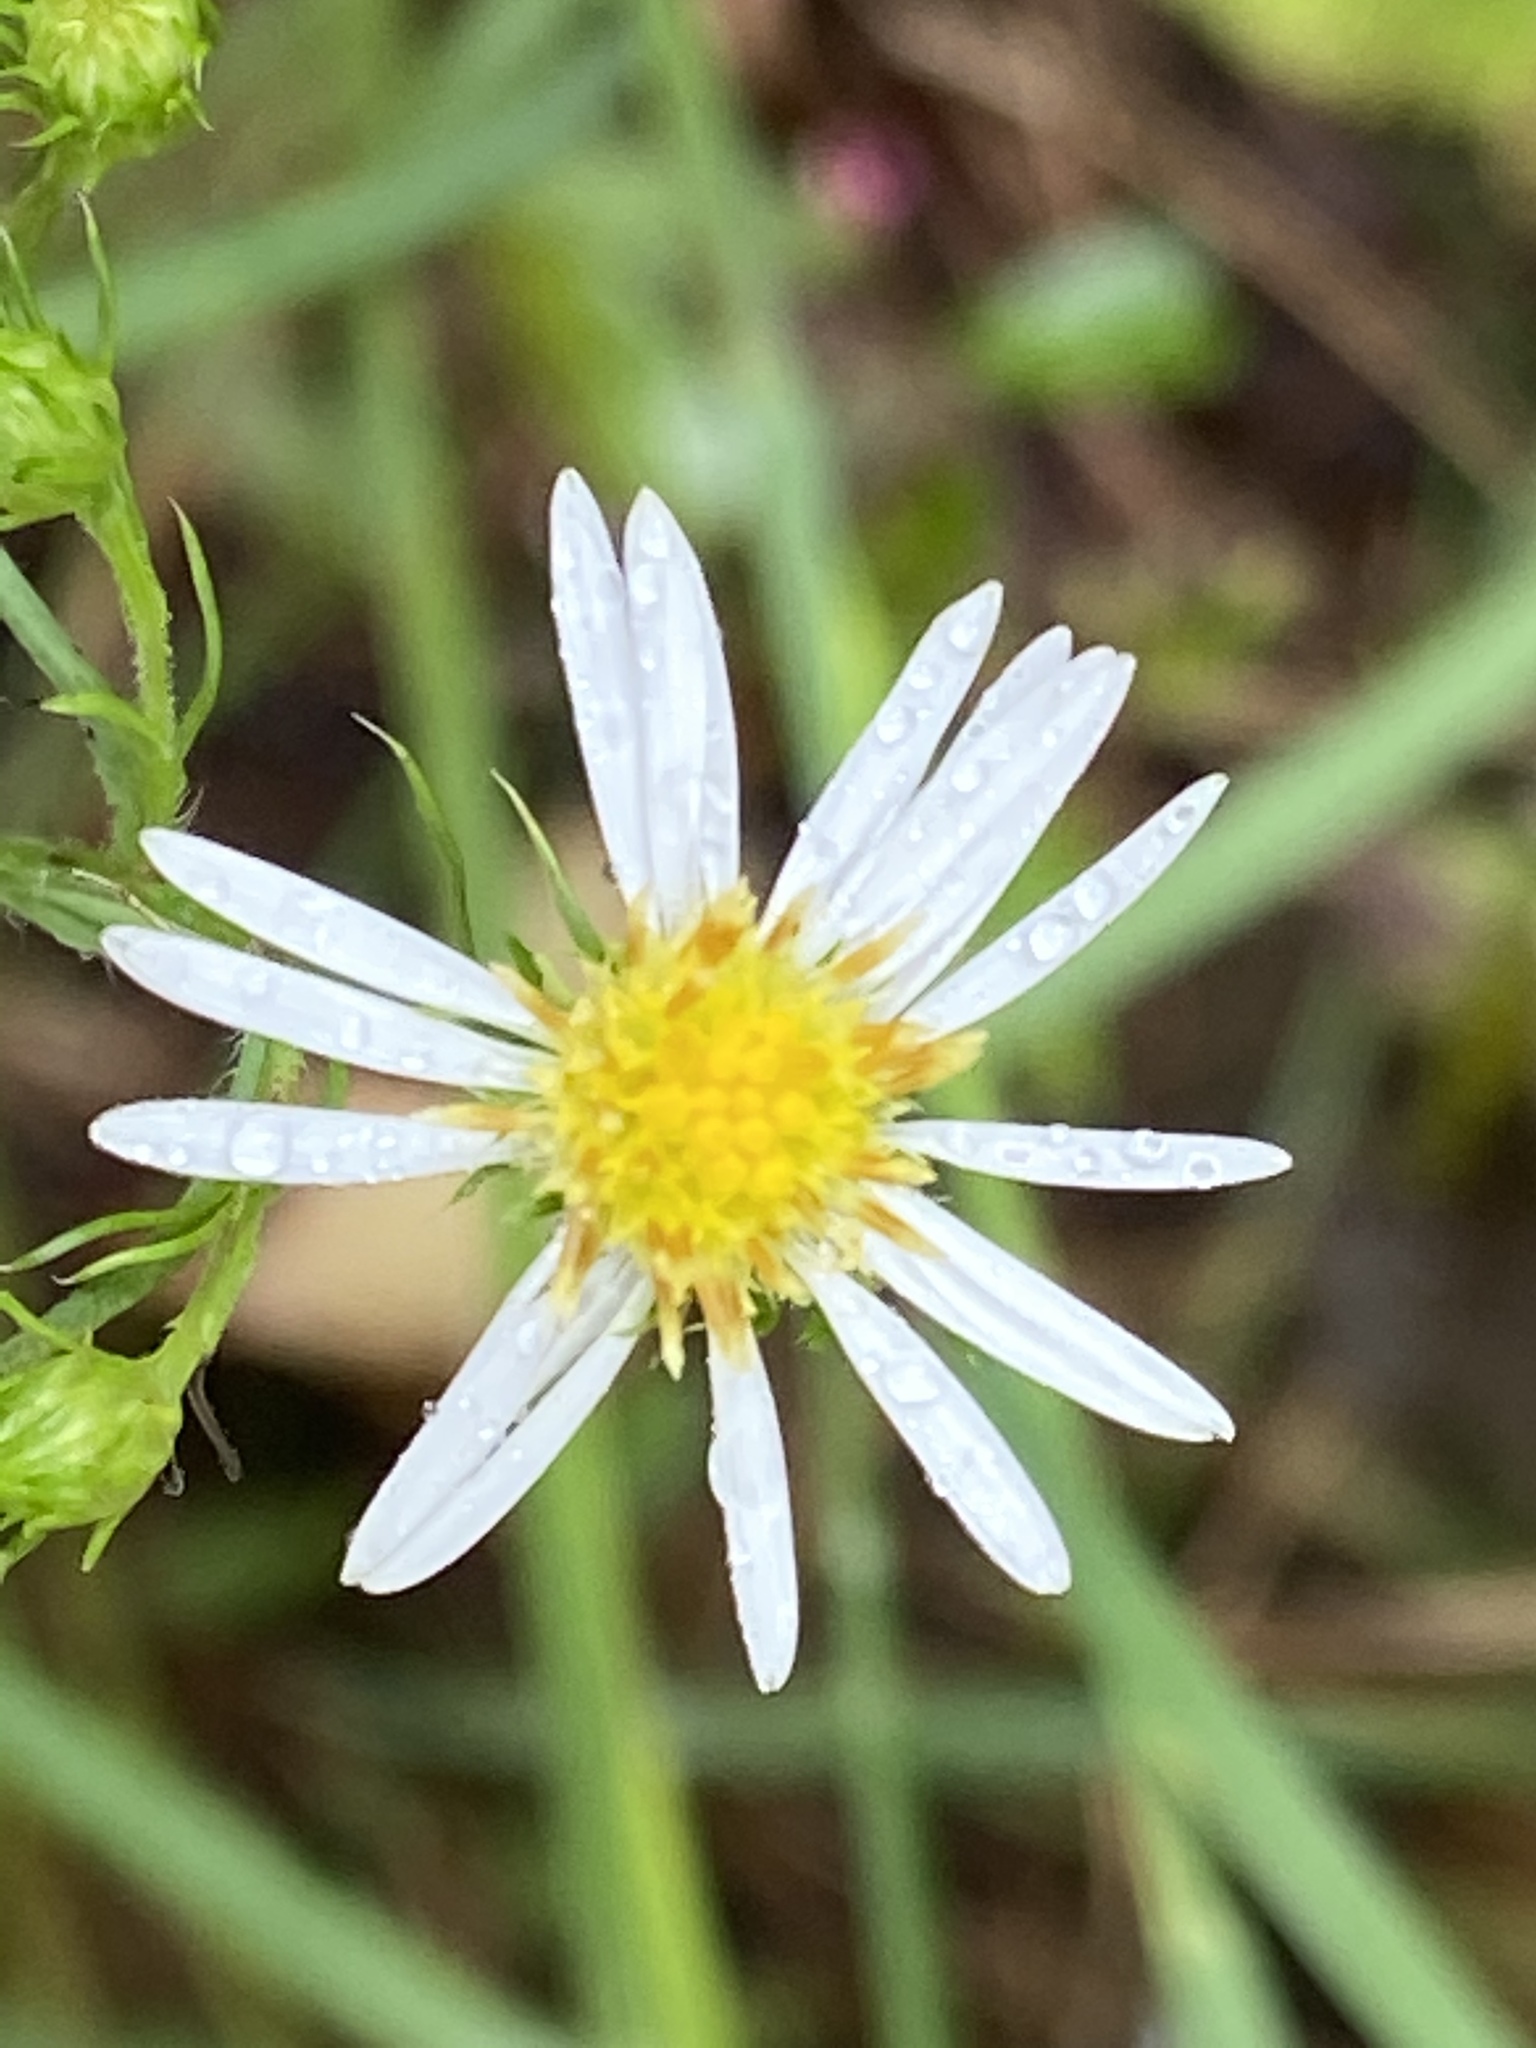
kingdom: Plantae
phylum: Tracheophyta
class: Magnoliopsida
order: Asterales
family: Asteraceae
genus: Symphyotrichum
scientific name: Symphyotrichum pilosum
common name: Awl aster
